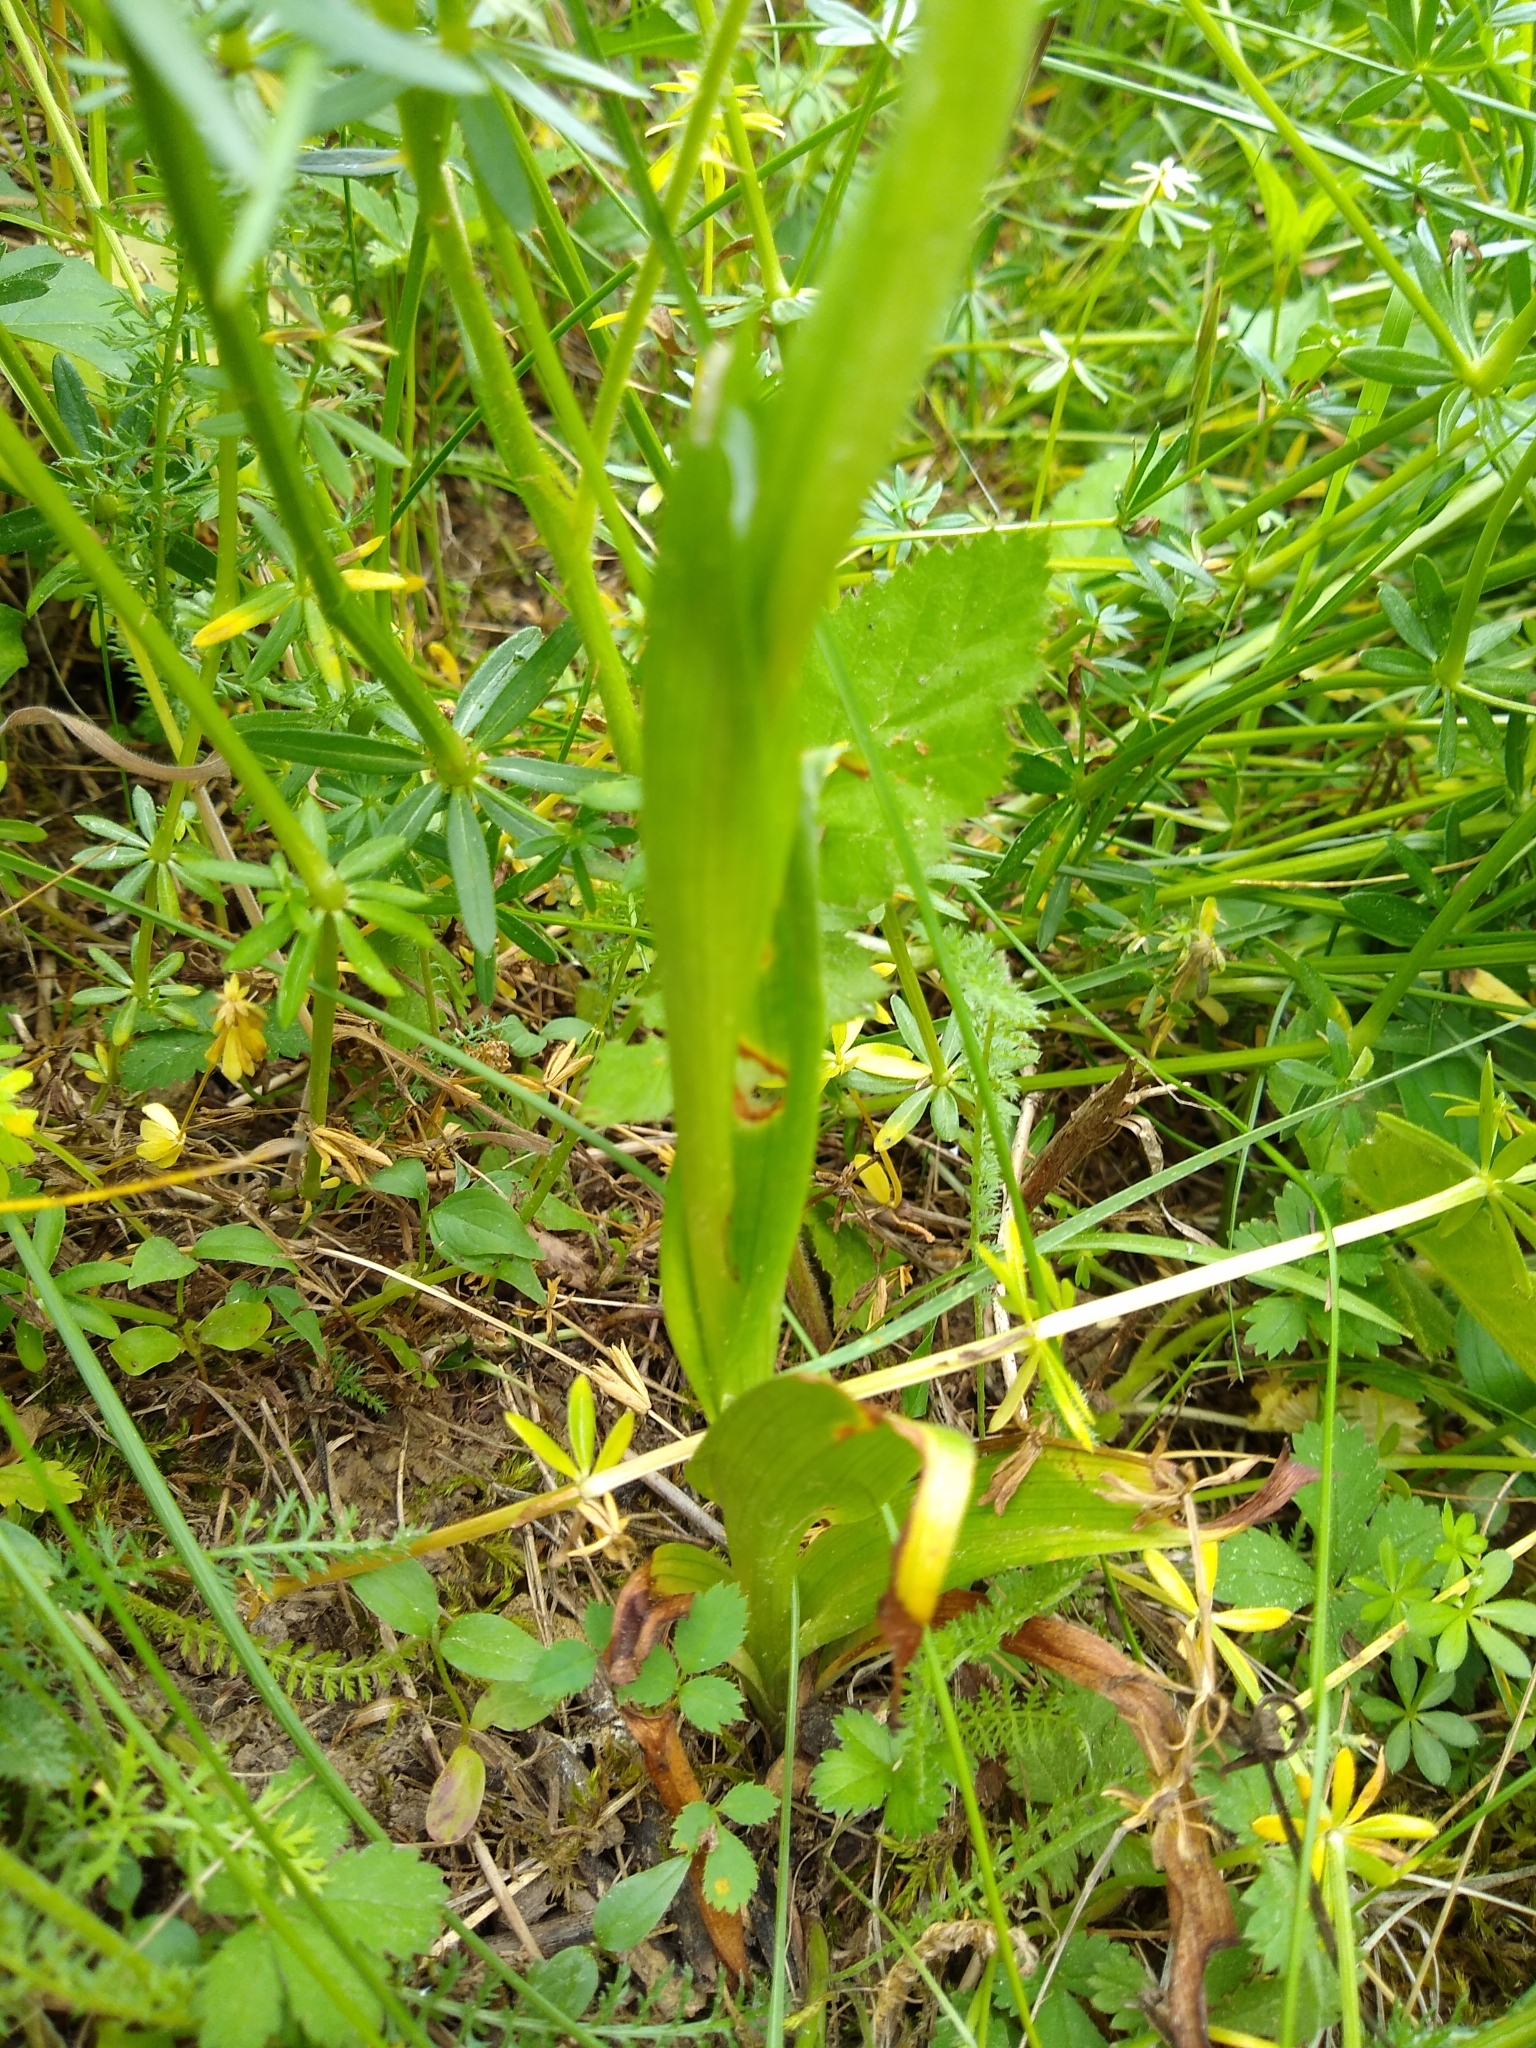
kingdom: Plantae
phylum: Tracheophyta
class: Liliopsida
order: Asparagales
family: Orchidaceae
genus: Anacamptis
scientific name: Anacamptis pyramidalis
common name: Pyramidal orchid
